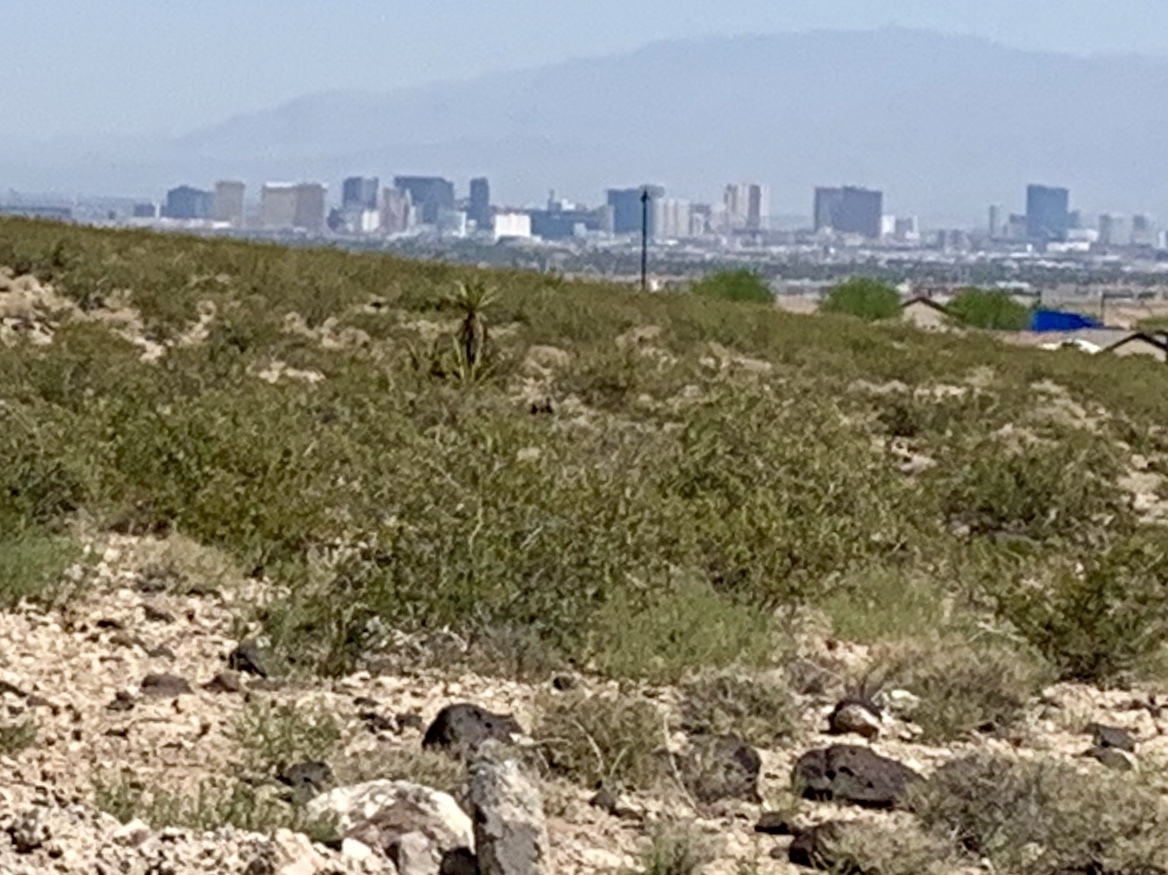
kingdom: Plantae
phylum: Tracheophyta
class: Magnoliopsida
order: Zygophyllales
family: Zygophyllaceae
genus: Larrea
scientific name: Larrea tridentata
